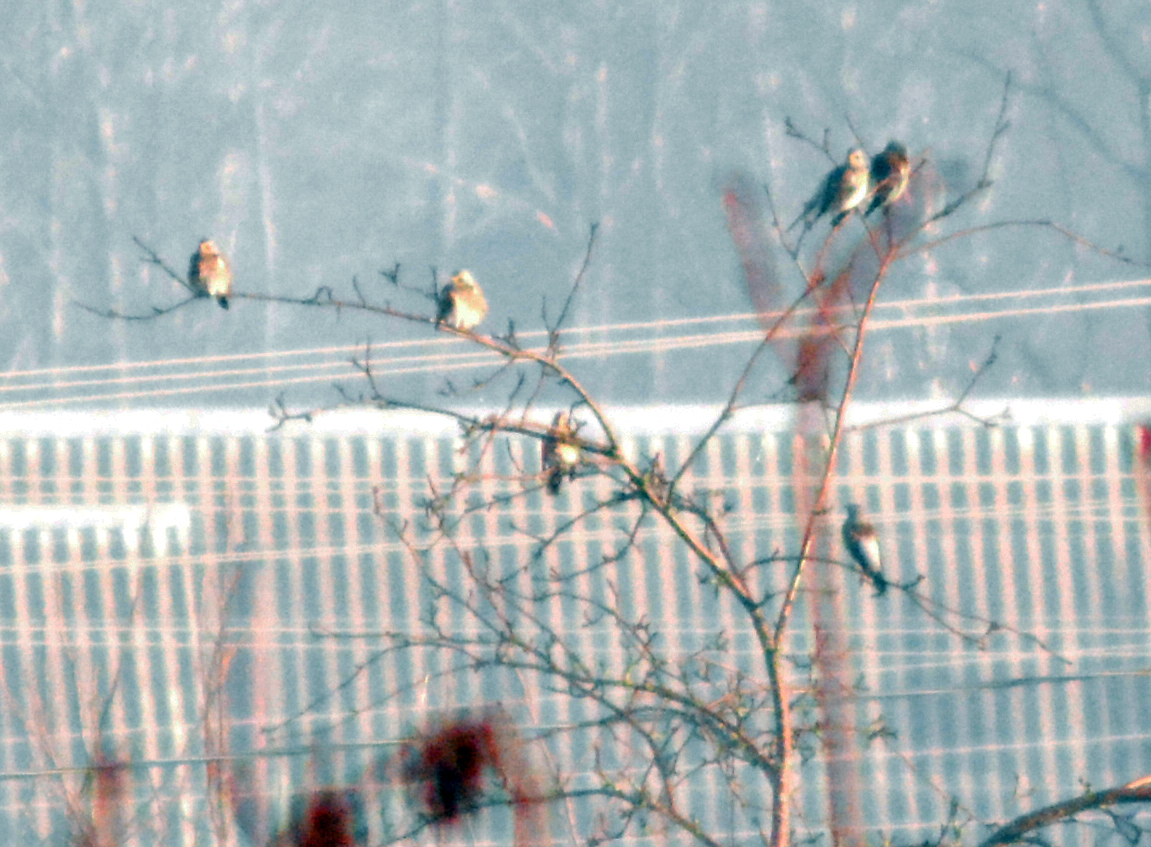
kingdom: Animalia
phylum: Chordata
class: Aves
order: Passeriformes
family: Turdidae
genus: Turdus
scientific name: Turdus pilaris
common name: Fieldfare
